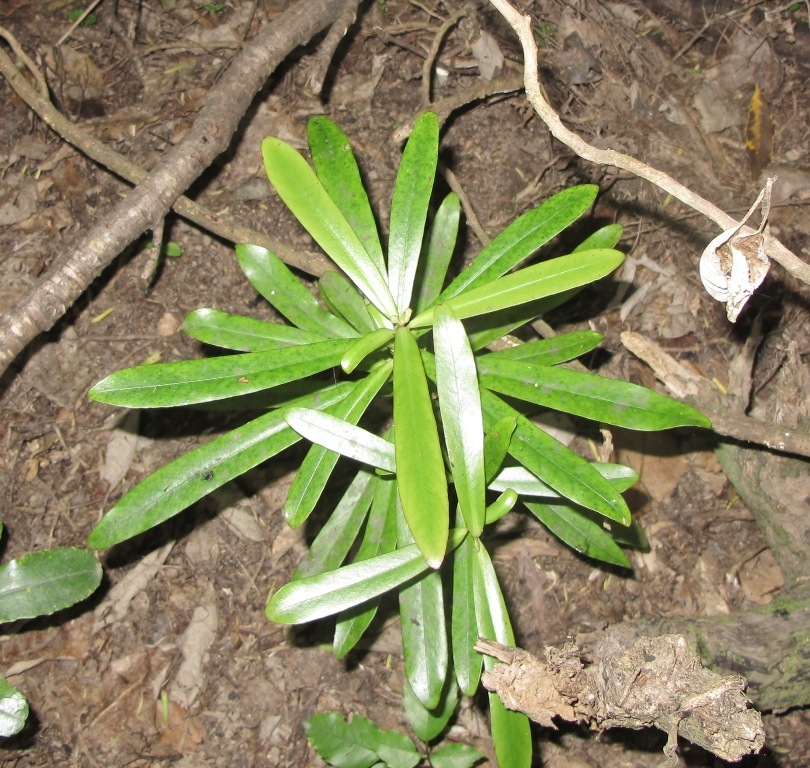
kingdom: Plantae
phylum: Tracheophyta
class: Magnoliopsida
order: Ericales
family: Primulaceae
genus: Myrsine
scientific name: Myrsine salicina
